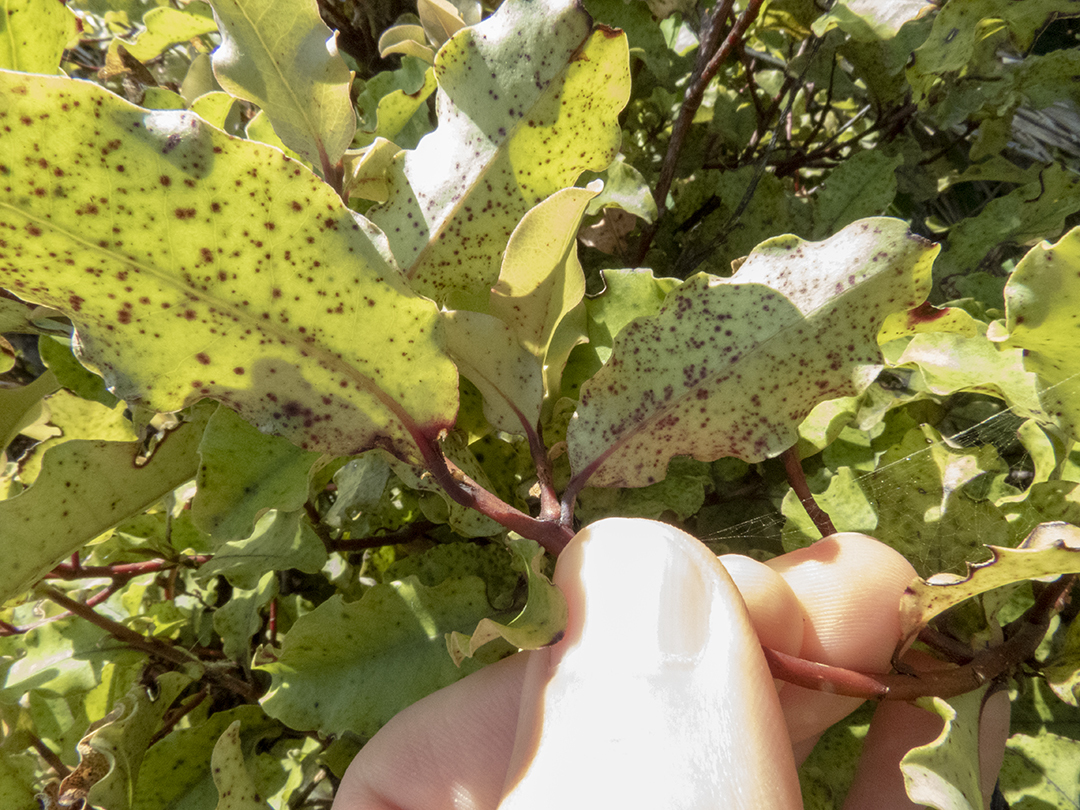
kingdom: Plantae
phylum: Tracheophyta
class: Magnoliopsida
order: Ericales
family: Primulaceae
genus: Myrsine
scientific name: Myrsine australis
